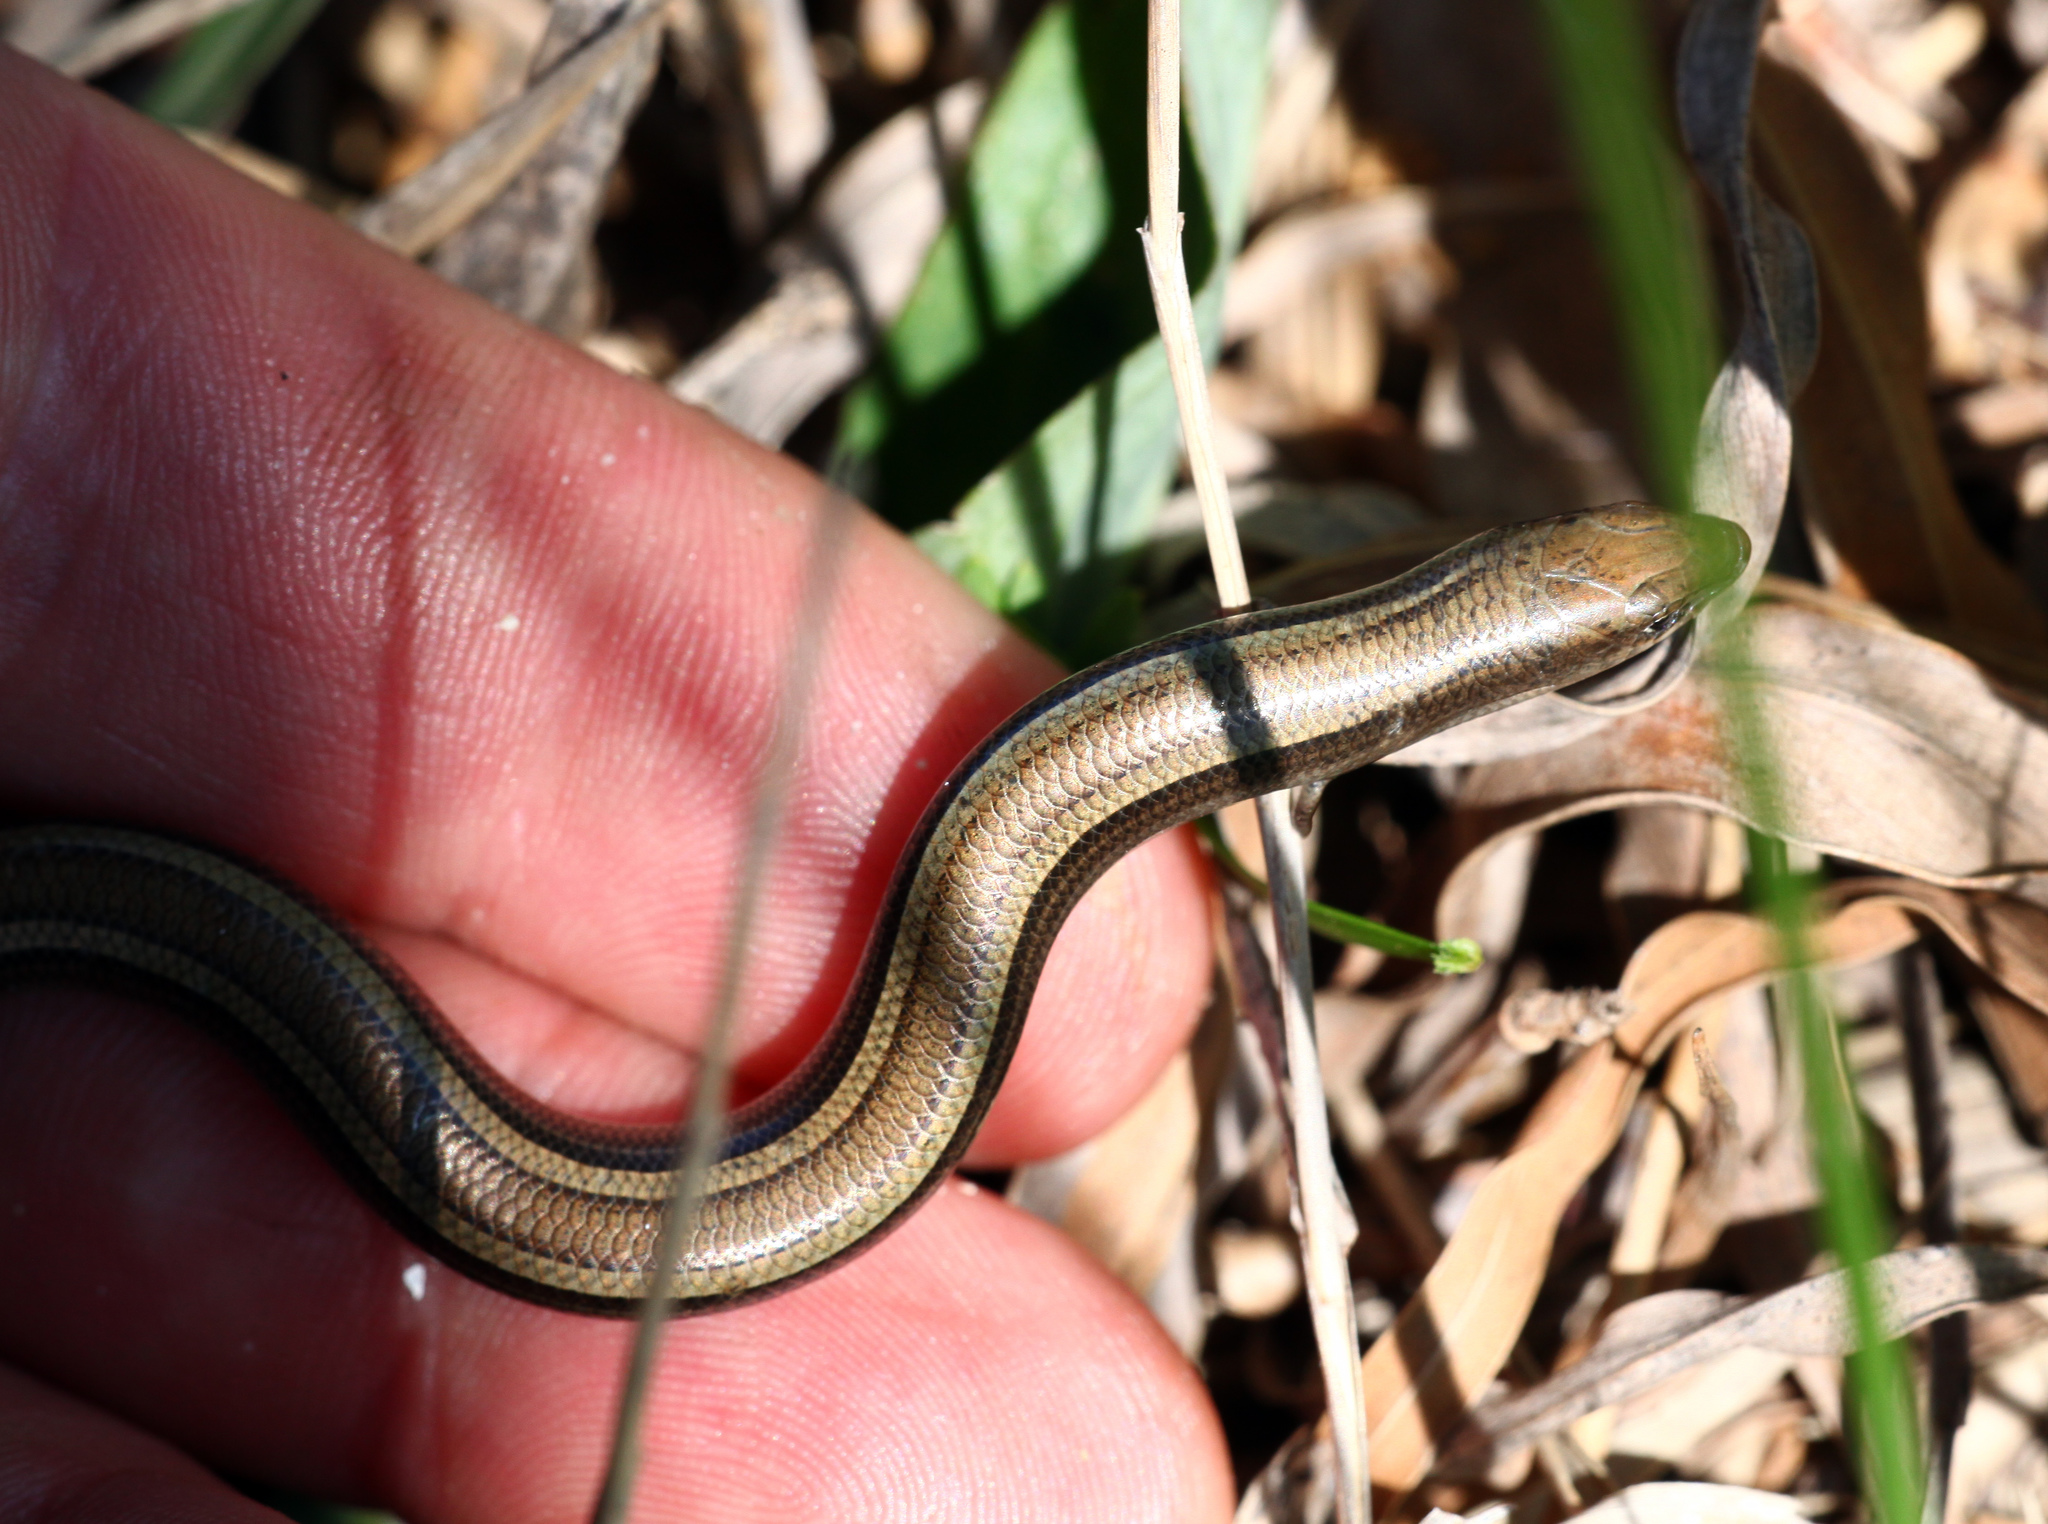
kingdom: Animalia
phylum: Chordata
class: Squamata
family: Scincidae
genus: Chalcides
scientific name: Chalcides chalcides
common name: Italian three-toed skink
